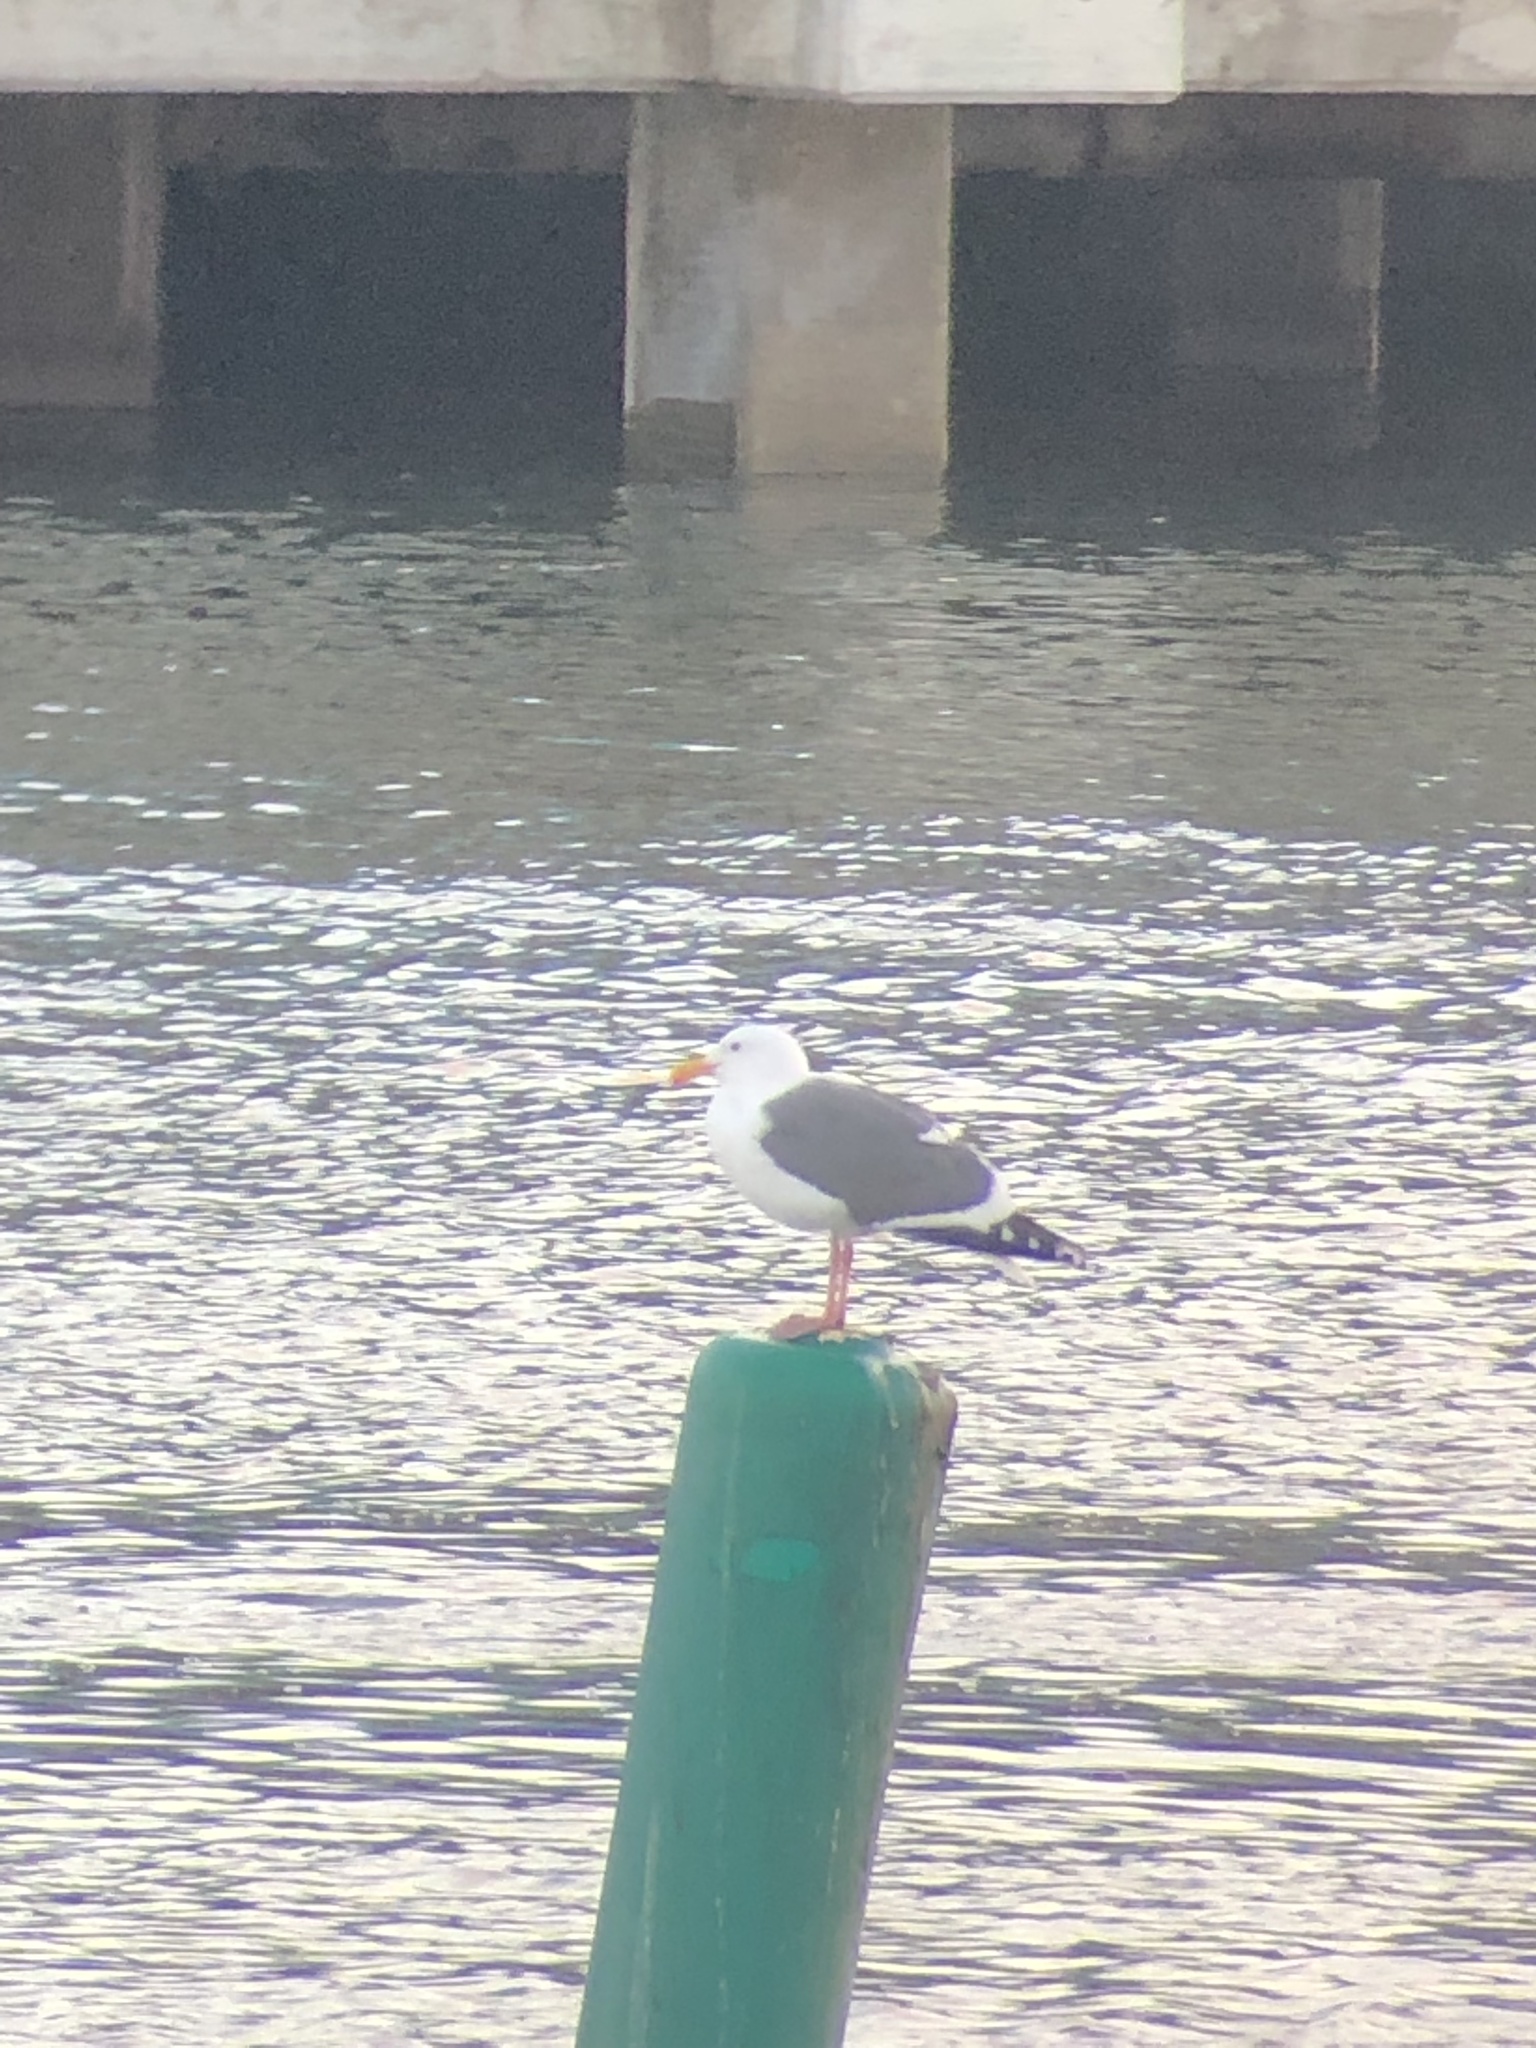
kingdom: Animalia
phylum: Chordata
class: Aves
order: Charadriiformes
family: Laridae
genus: Larus
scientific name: Larus occidentalis
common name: Western gull
